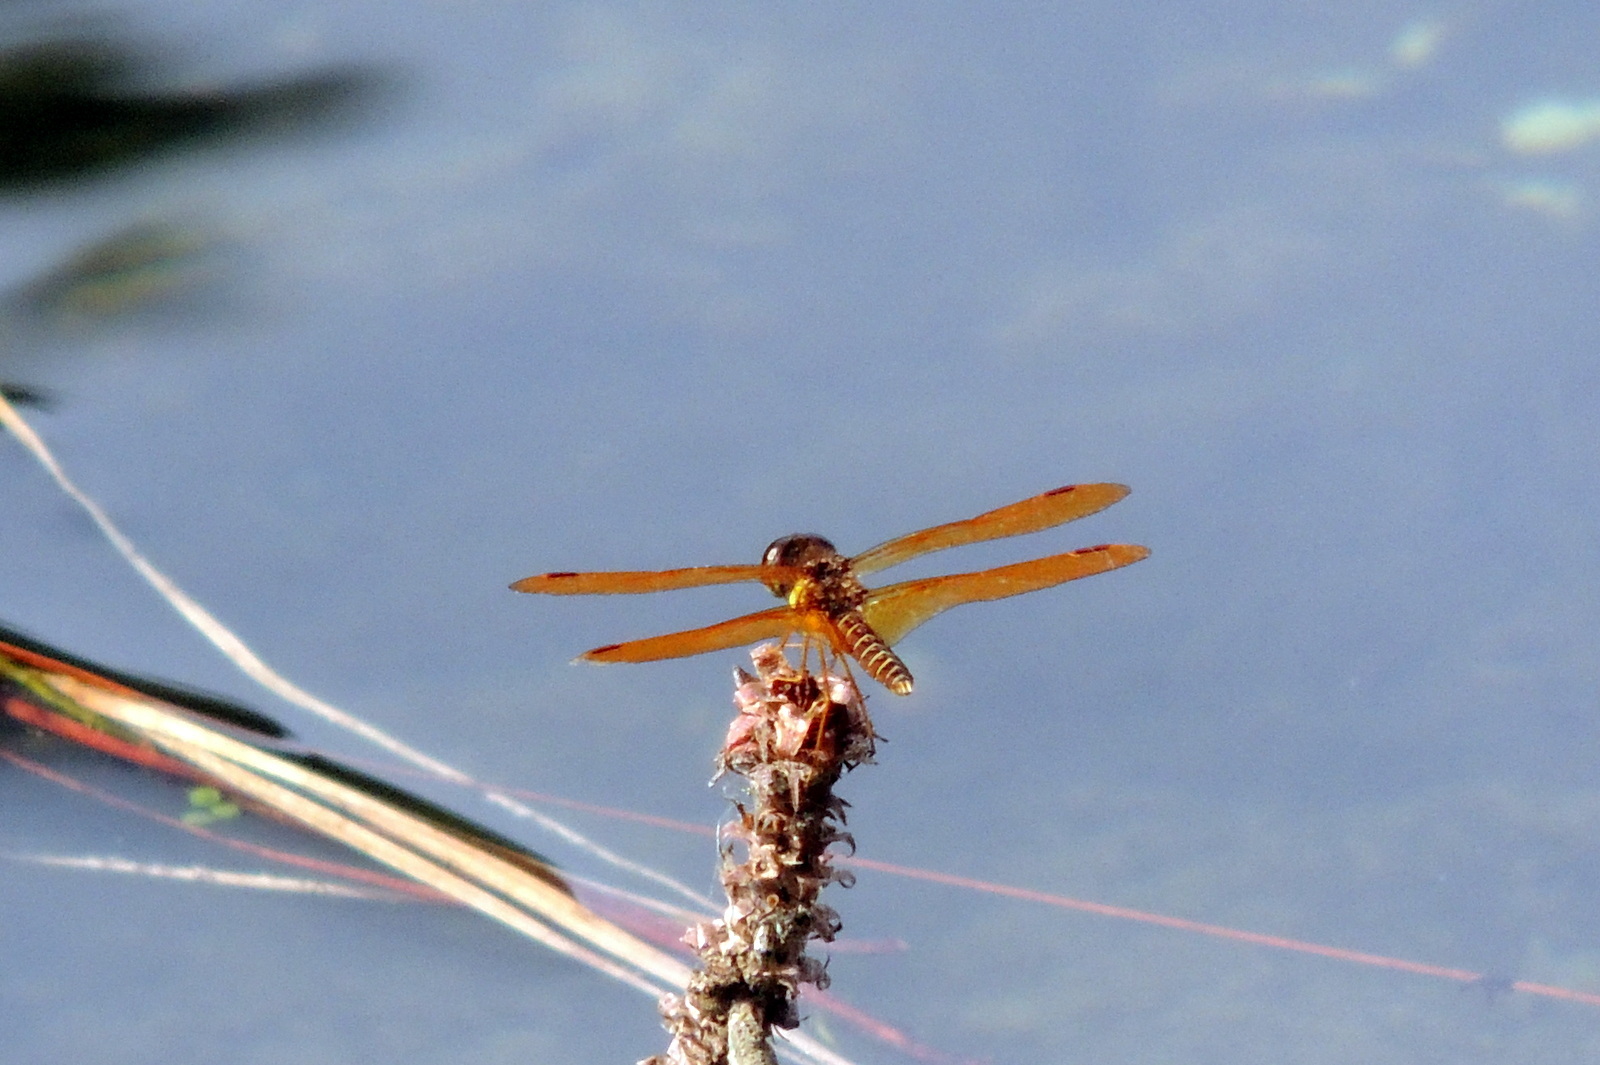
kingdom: Animalia
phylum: Arthropoda
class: Insecta
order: Odonata
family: Libellulidae
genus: Perithemis
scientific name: Perithemis tenera
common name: Eastern amberwing
